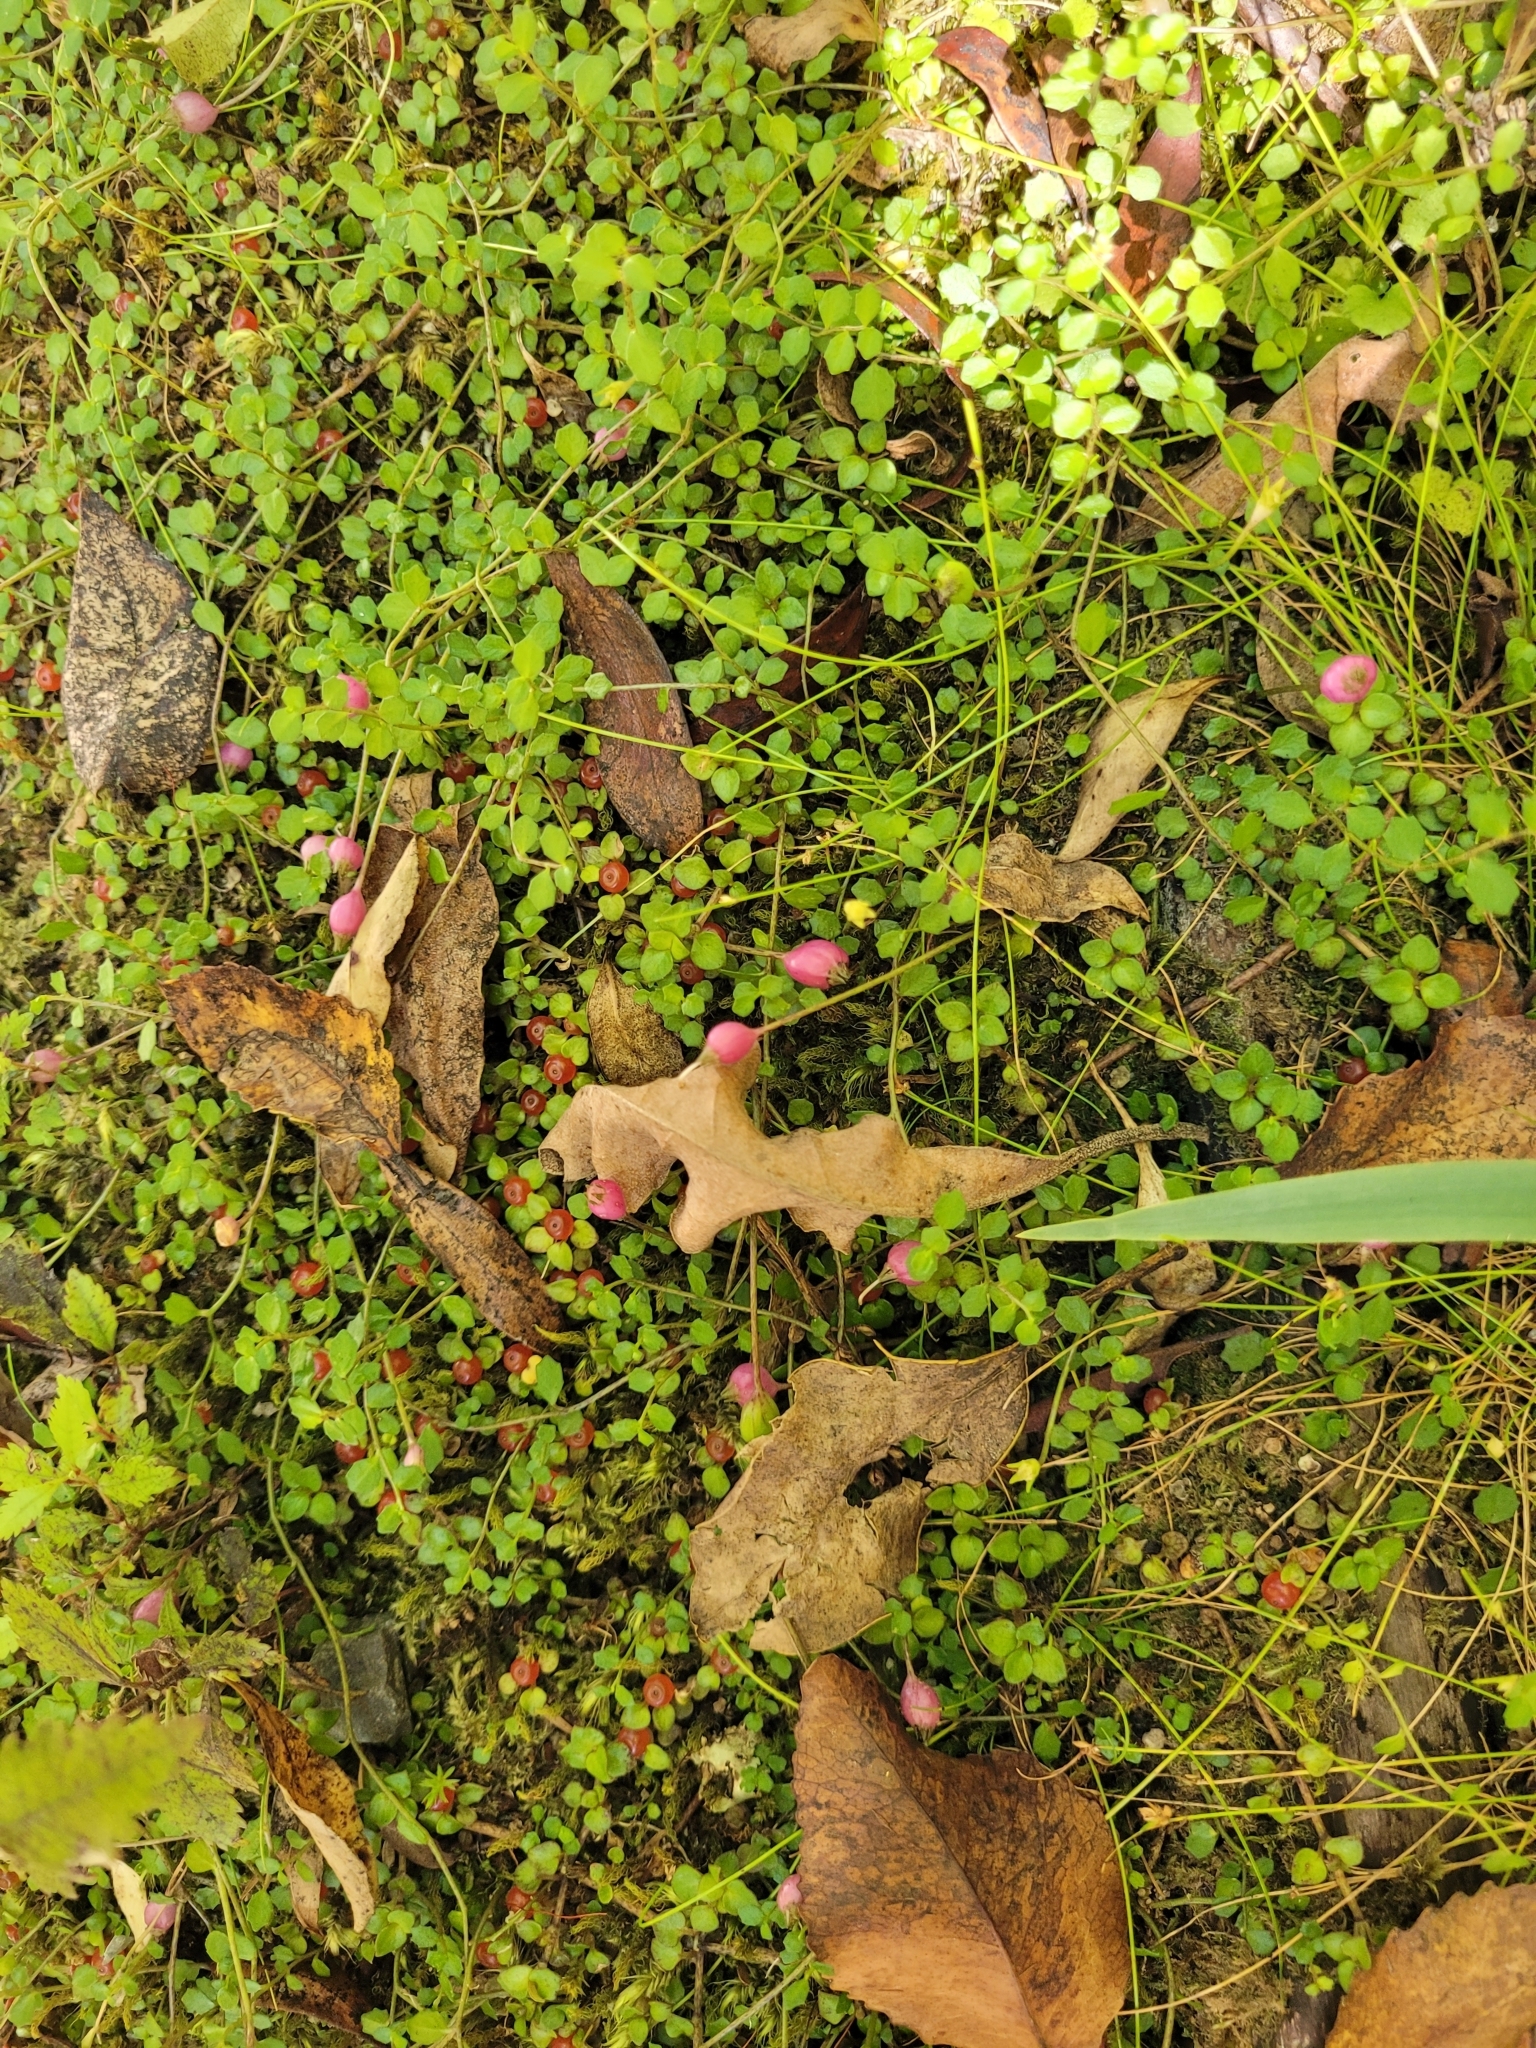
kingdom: Plantae
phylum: Tracheophyta
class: Magnoliopsida
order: Asterales
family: Campanulaceae
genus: Lobelia
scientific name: Lobelia angulata
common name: Lawn lobelia
